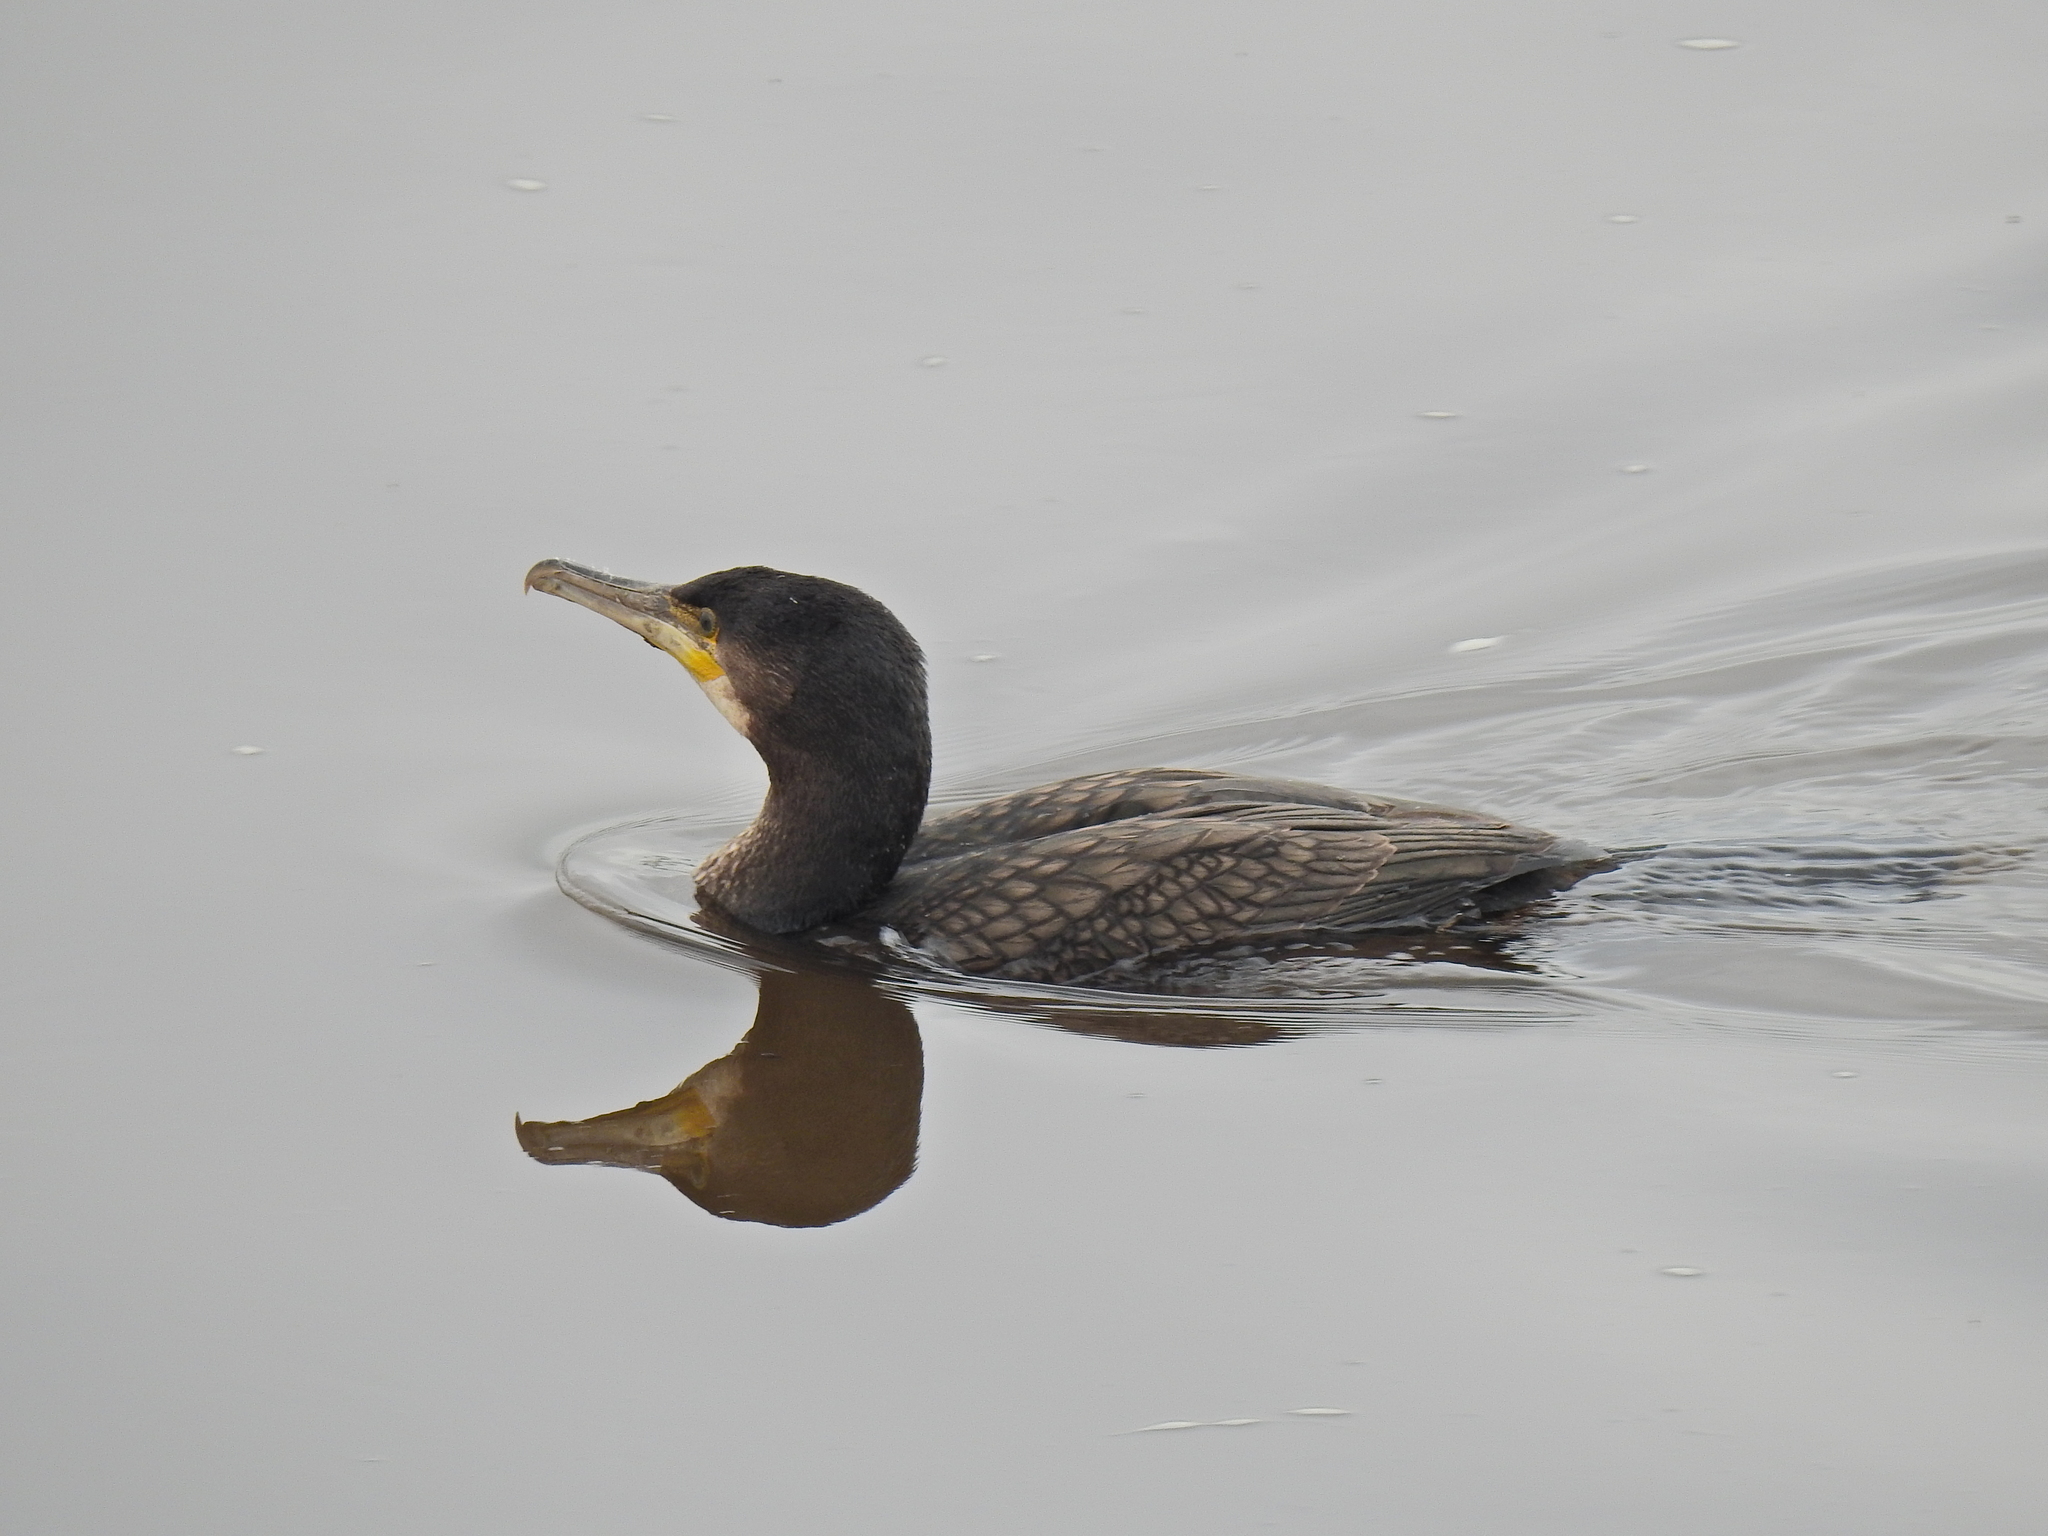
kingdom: Animalia
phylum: Chordata
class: Aves
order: Suliformes
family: Phalacrocoracidae
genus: Phalacrocorax
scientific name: Phalacrocorax carbo
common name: Great cormorant
